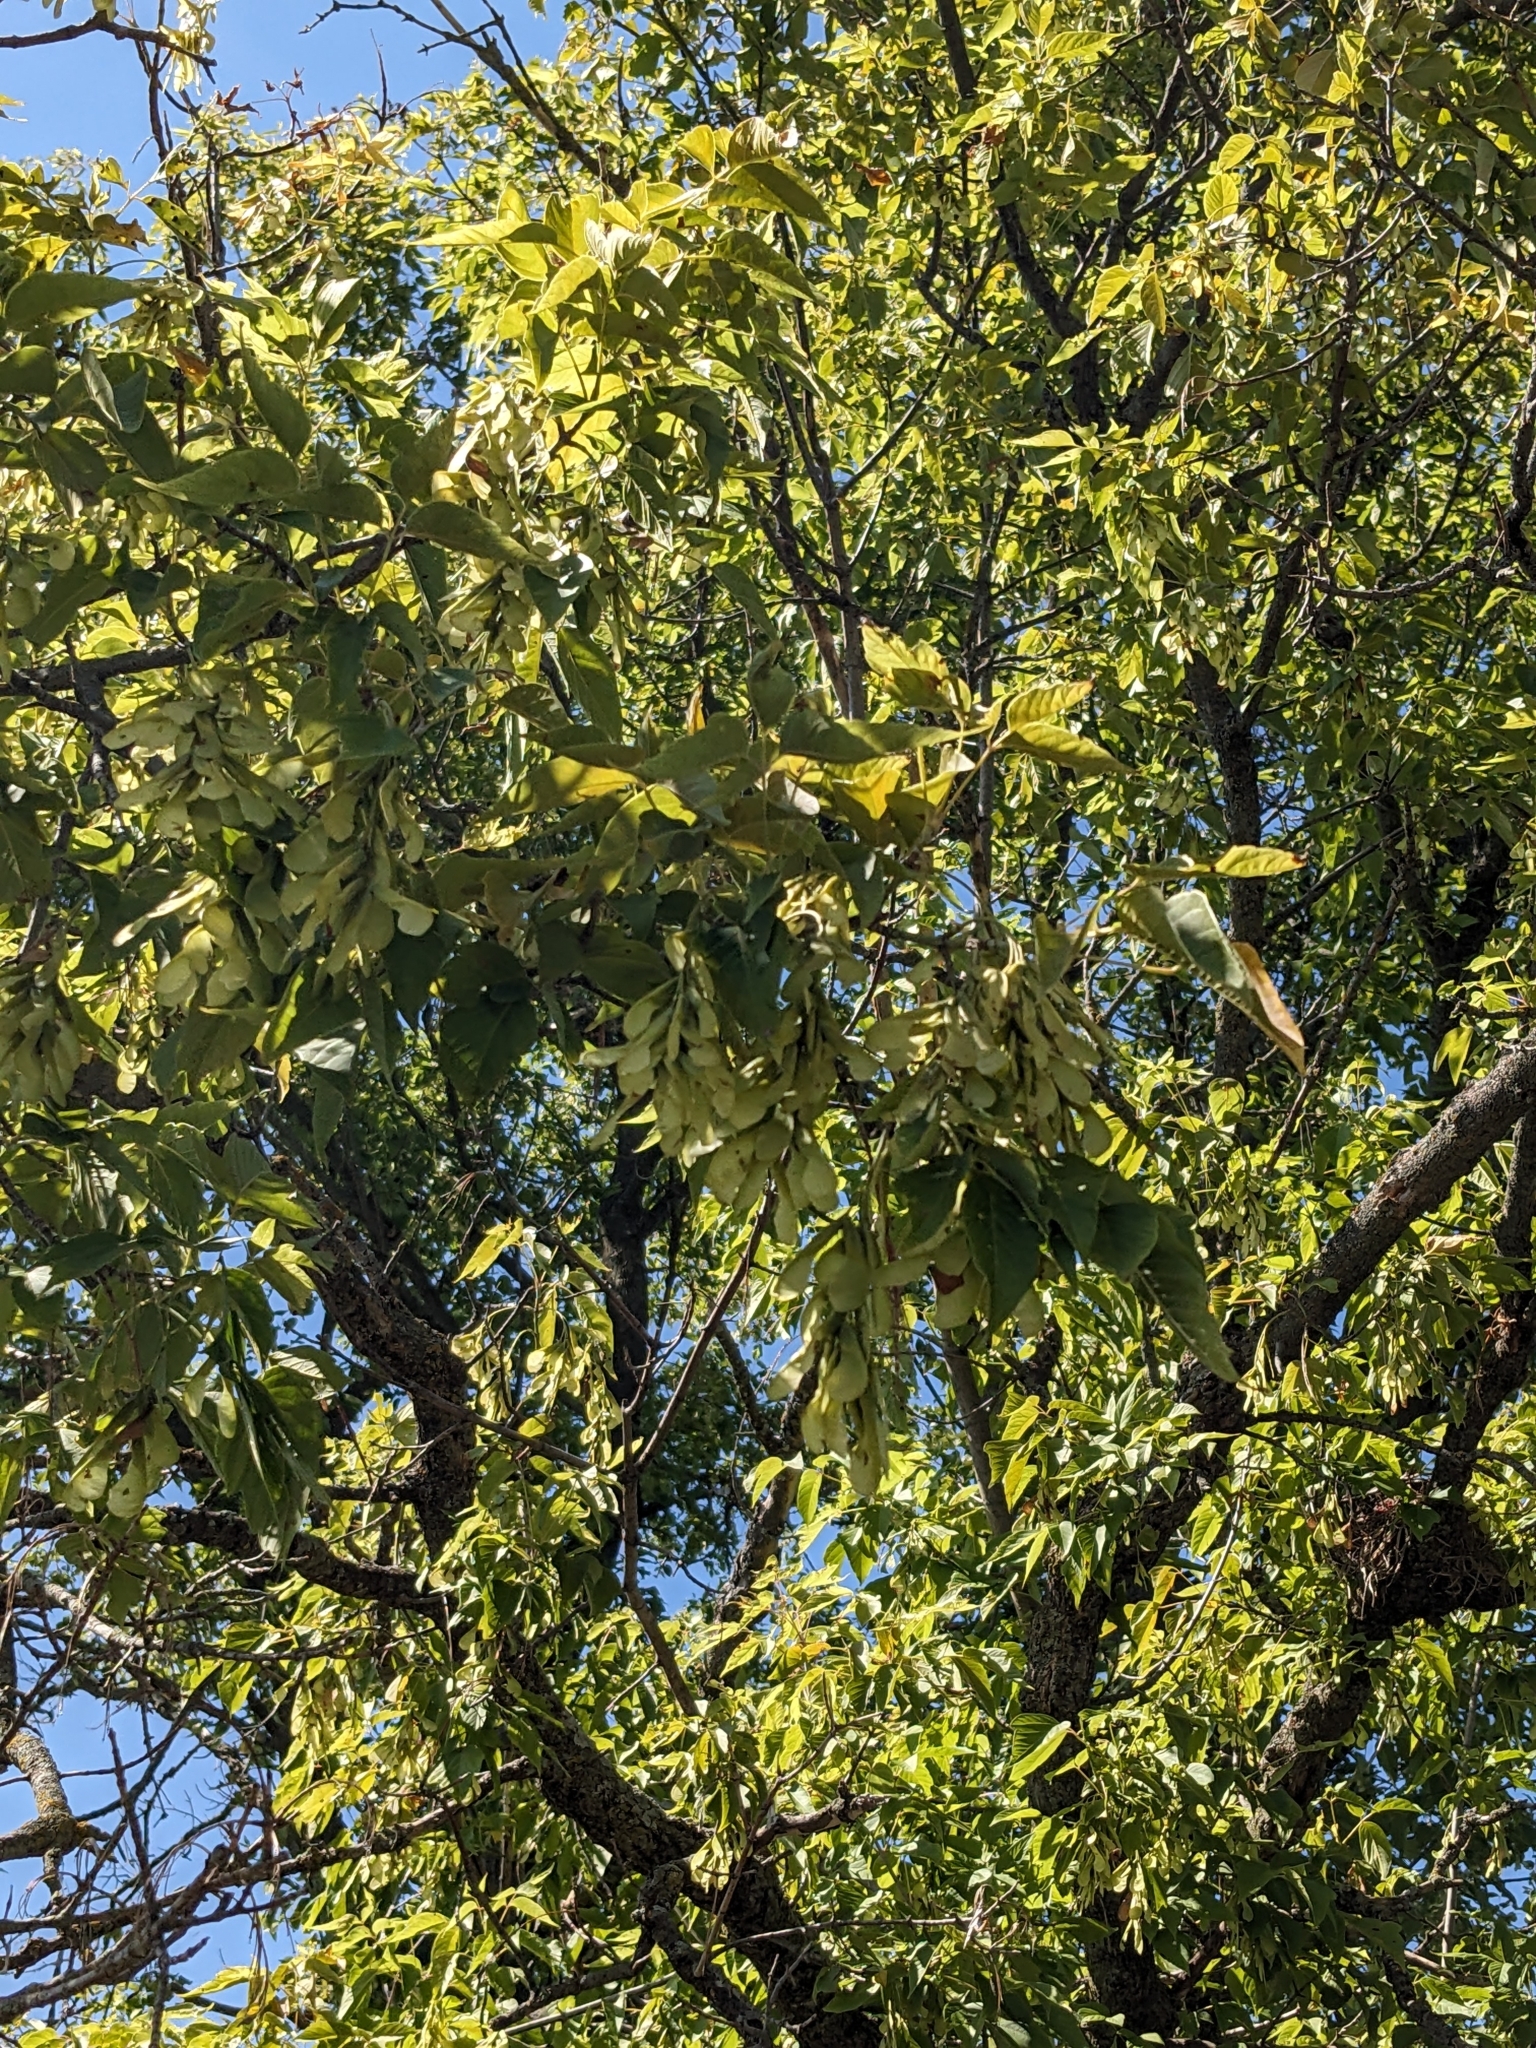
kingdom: Plantae
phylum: Tracheophyta
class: Magnoliopsida
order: Sapindales
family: Sapindaceae
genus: Acer
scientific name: Acer negundo
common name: Ashleaf maple
